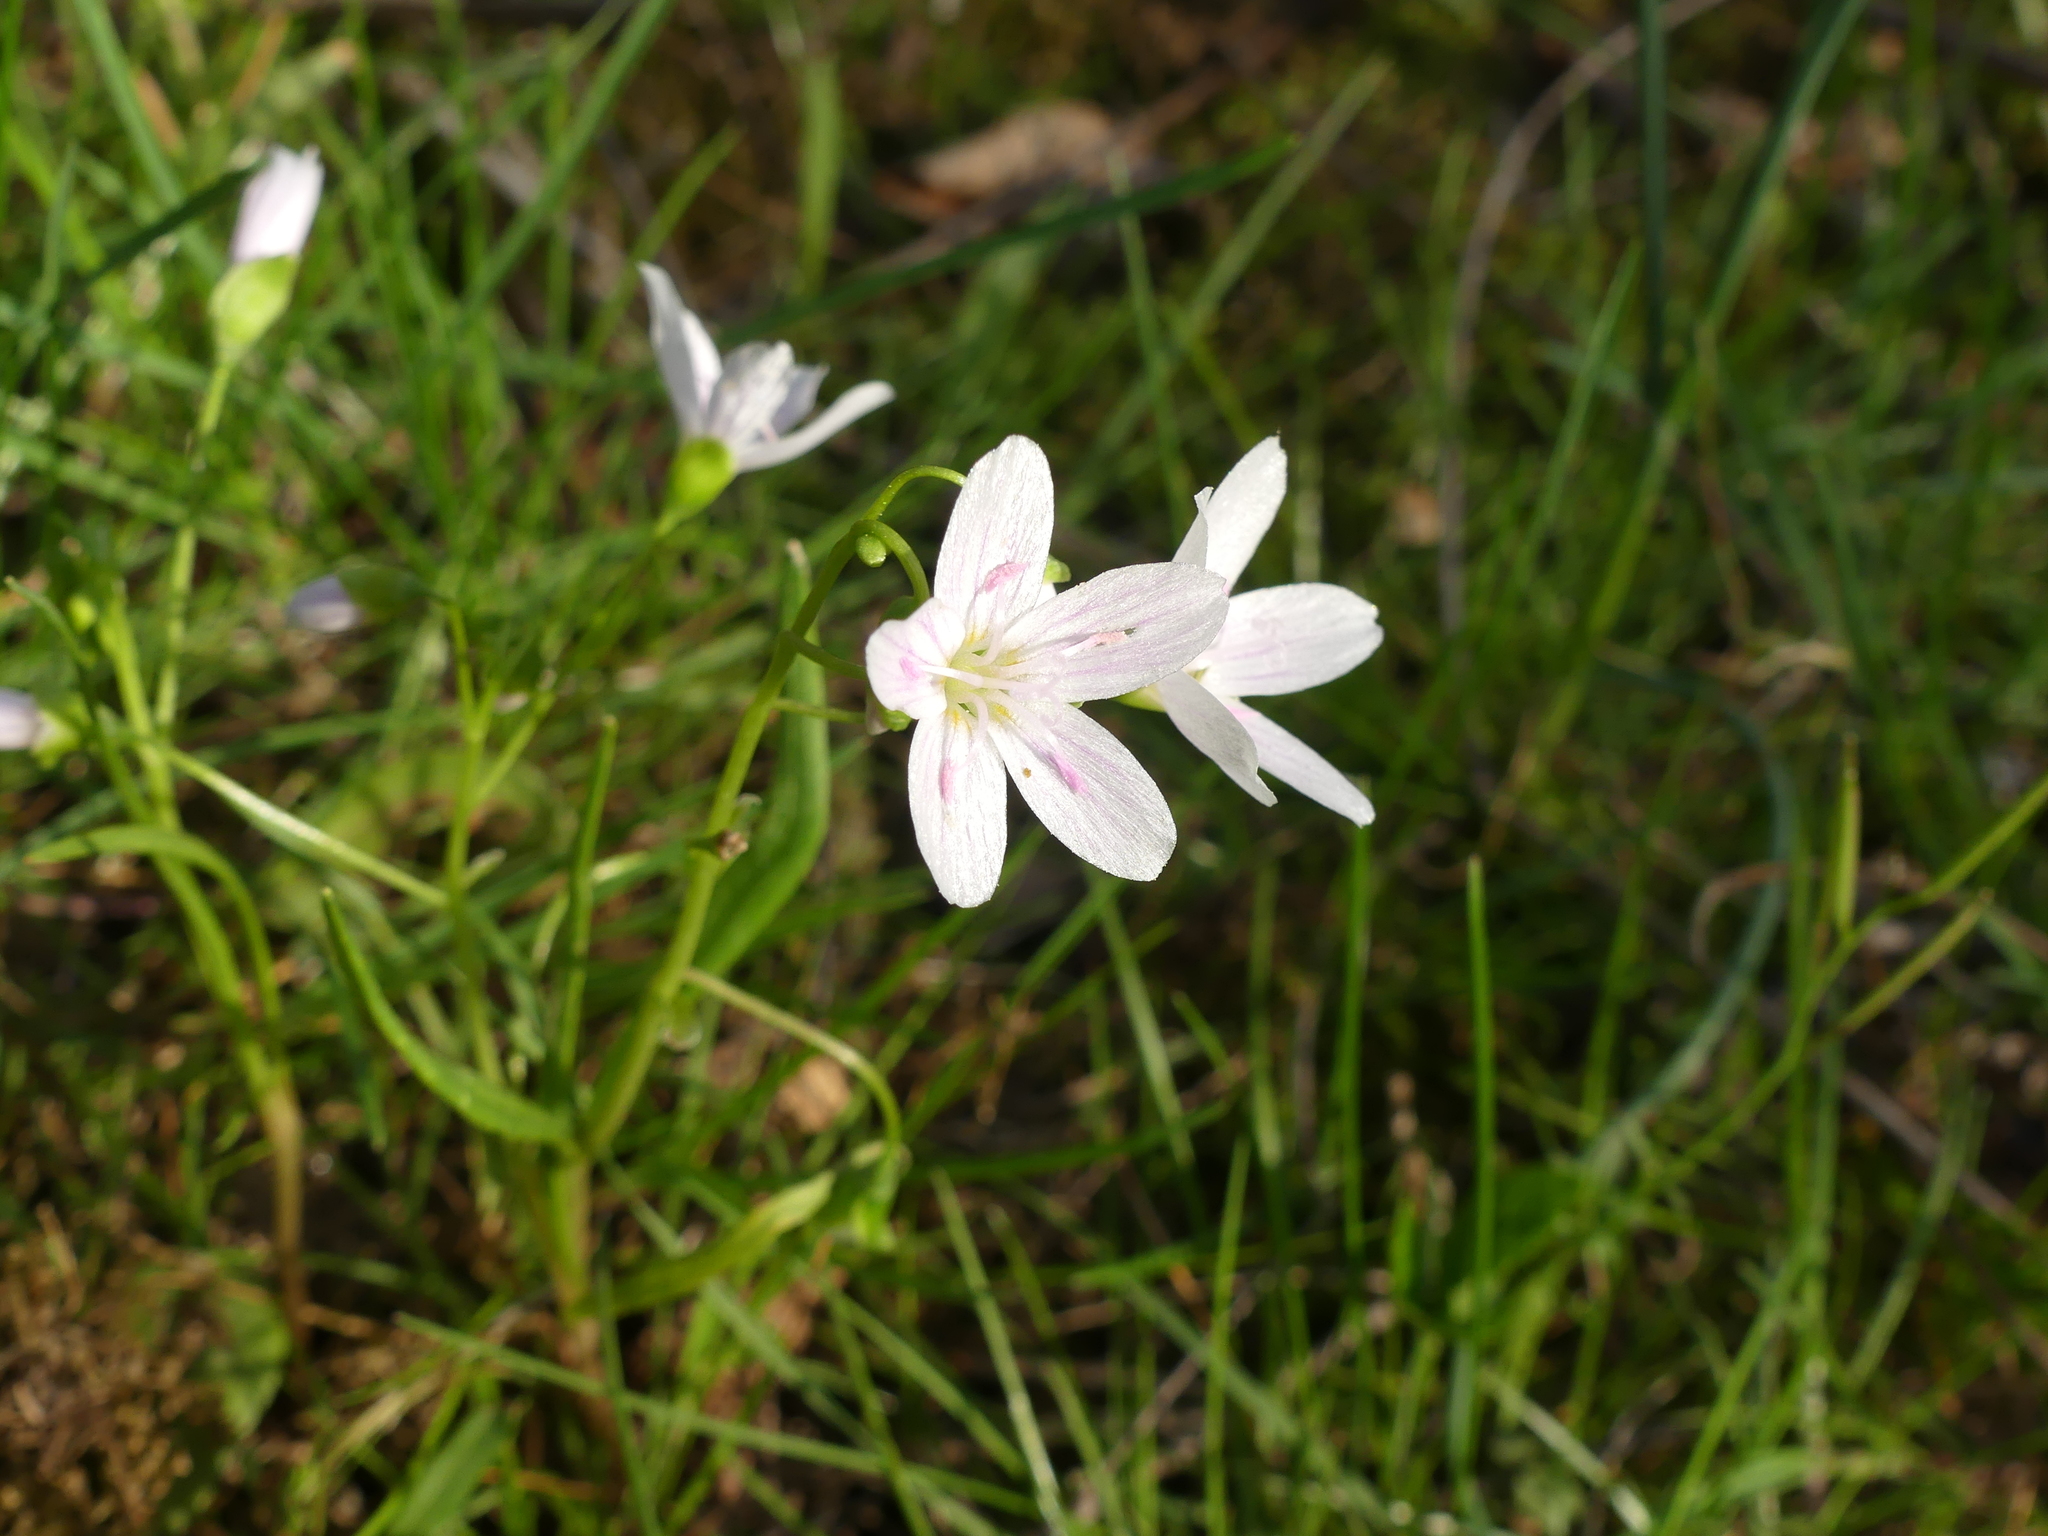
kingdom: Plantae
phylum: Tracheophyta
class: Magnoliopsida
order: Caryophyllales
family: Montiaceae
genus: Claytonia
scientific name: Claytonia virginica
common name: Virginia springbeauty
